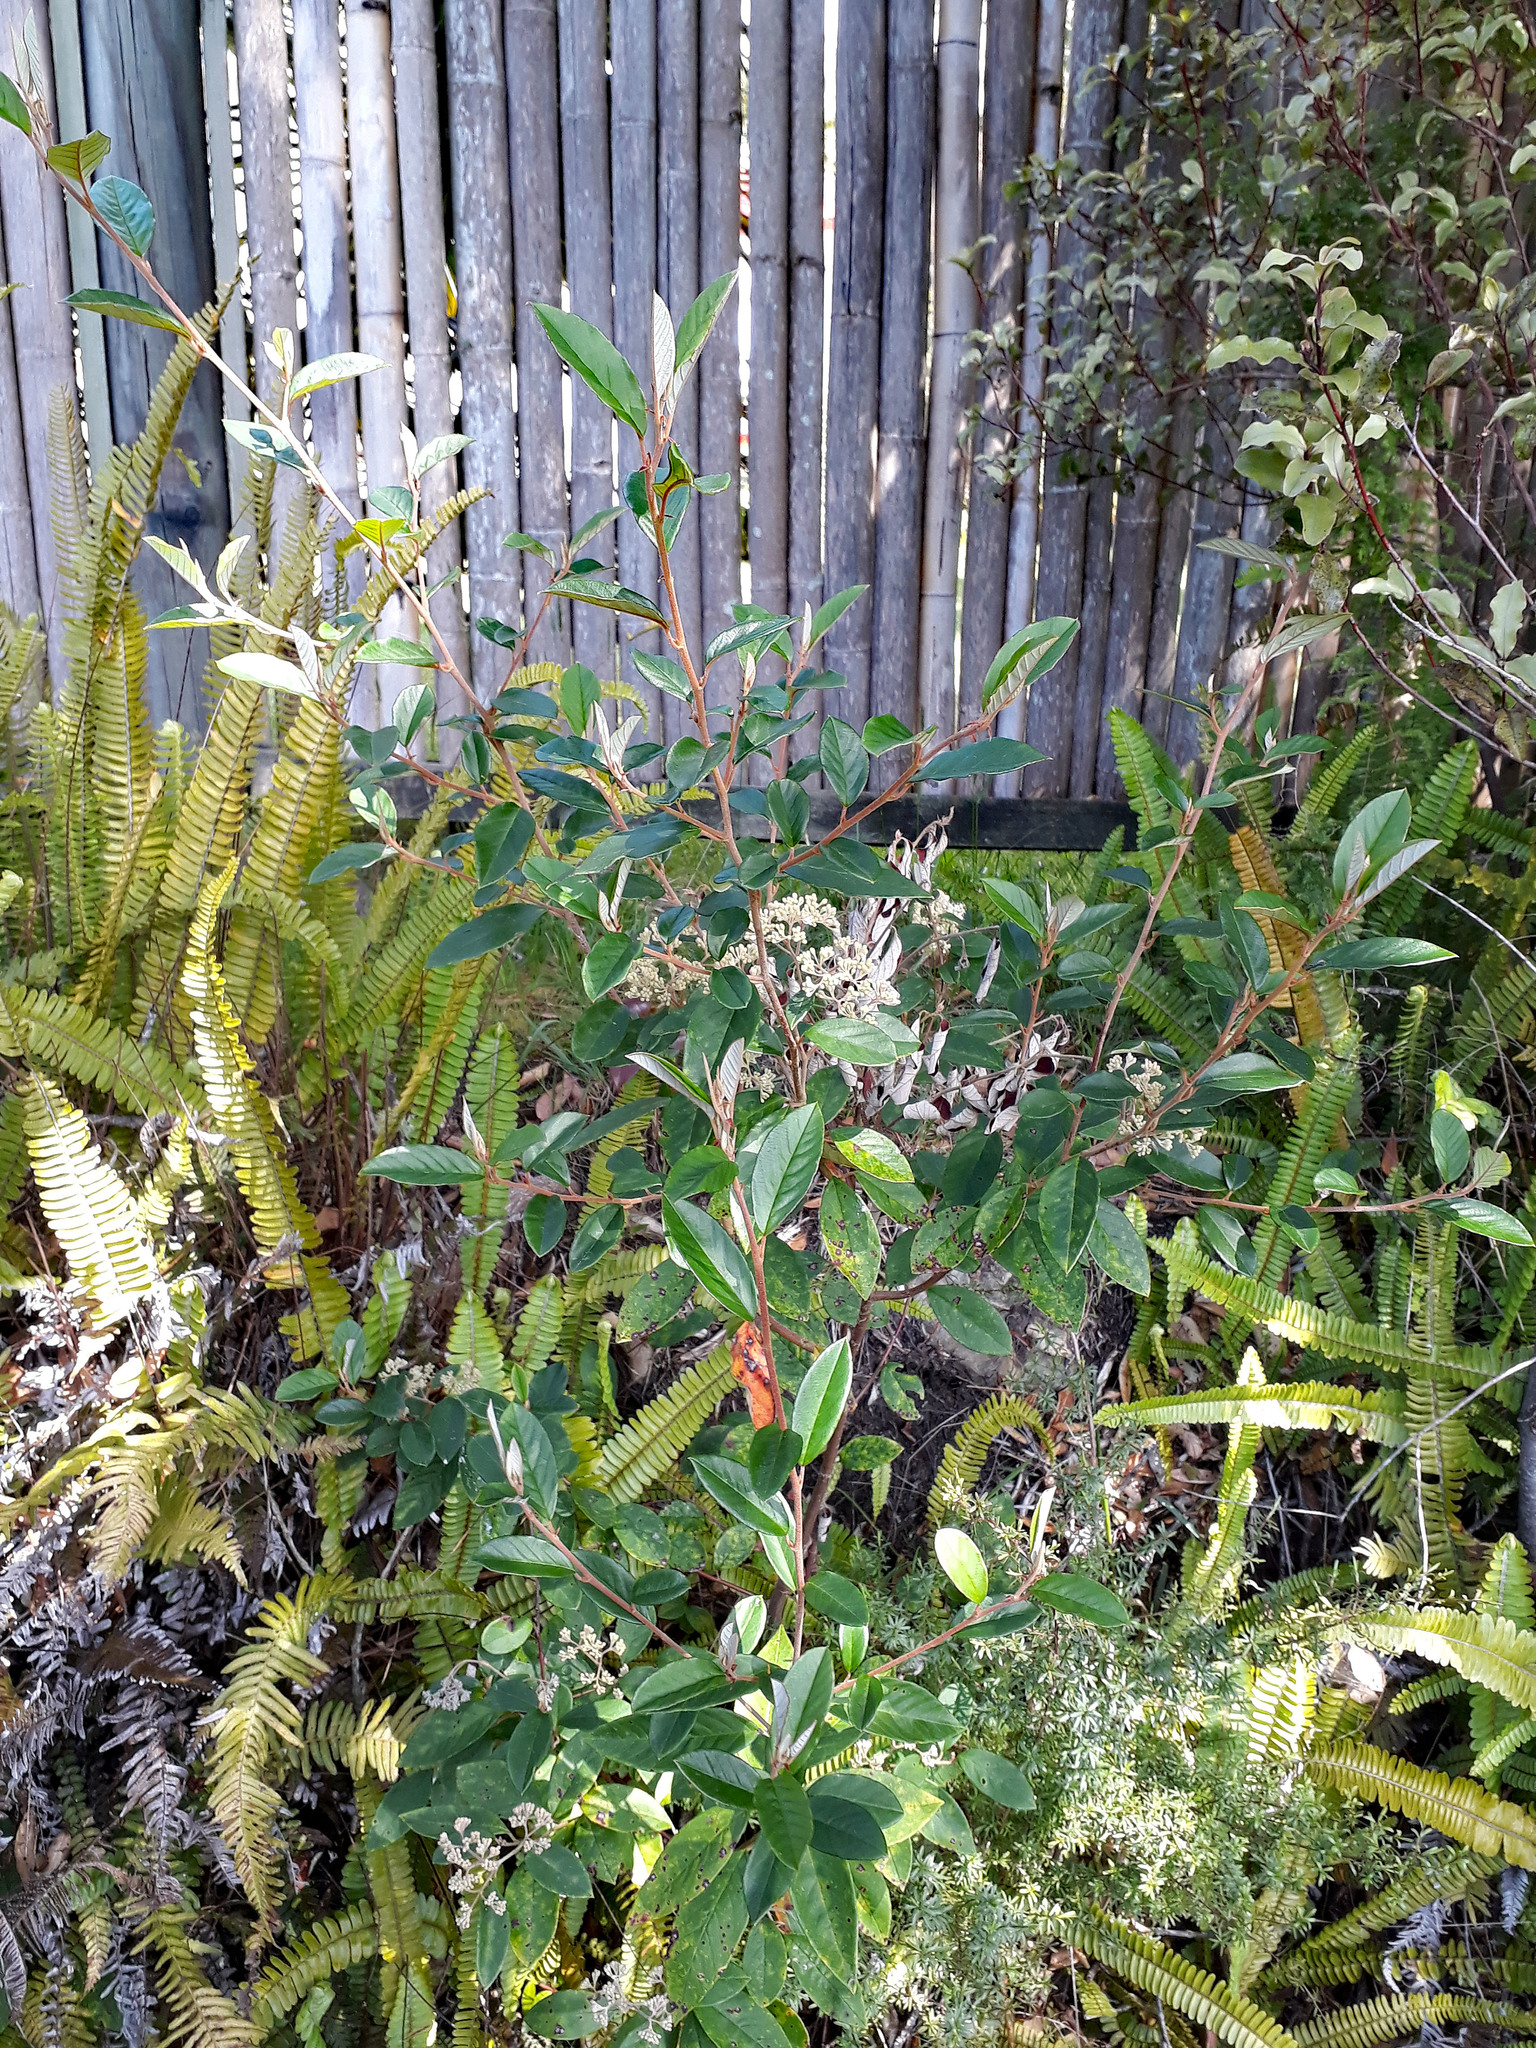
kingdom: Plantae
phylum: Tracheophyta
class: Magnoliopsida
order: Rosales
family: Rhamnaceae
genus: Pomaderris
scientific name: Pomaderris hamiltonii
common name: Pale-flowered kumarahou
